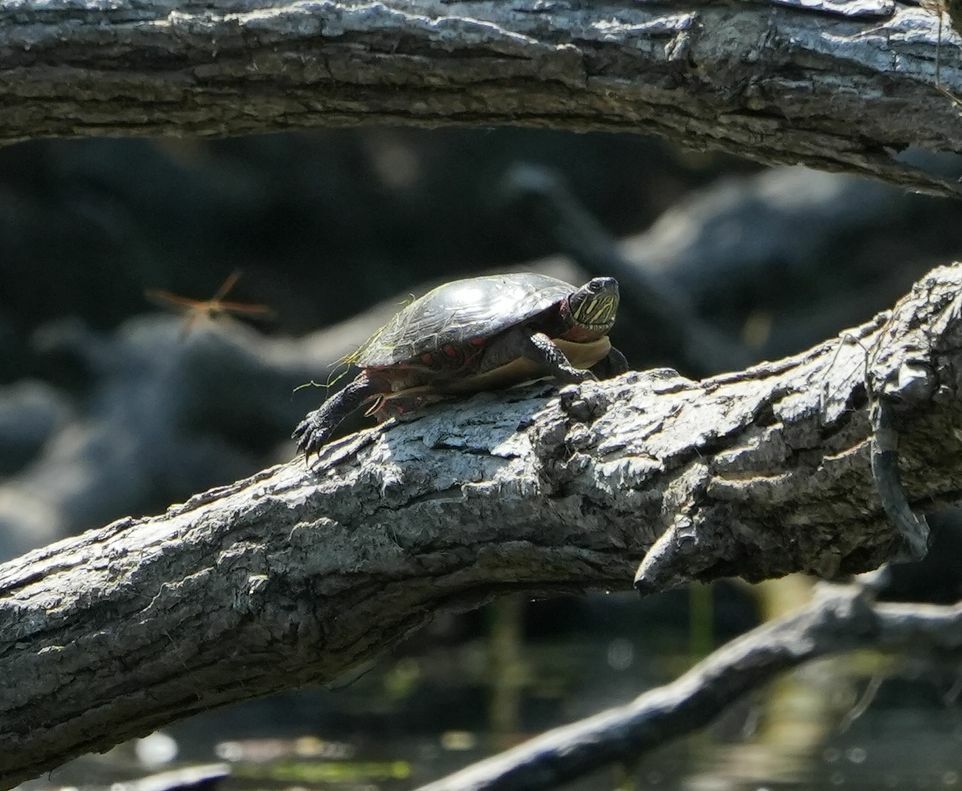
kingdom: Animalia
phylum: Chordata
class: Testudines
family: Emydidae
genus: Chrysemys
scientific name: Chrysemys picta
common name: Painted turtle
